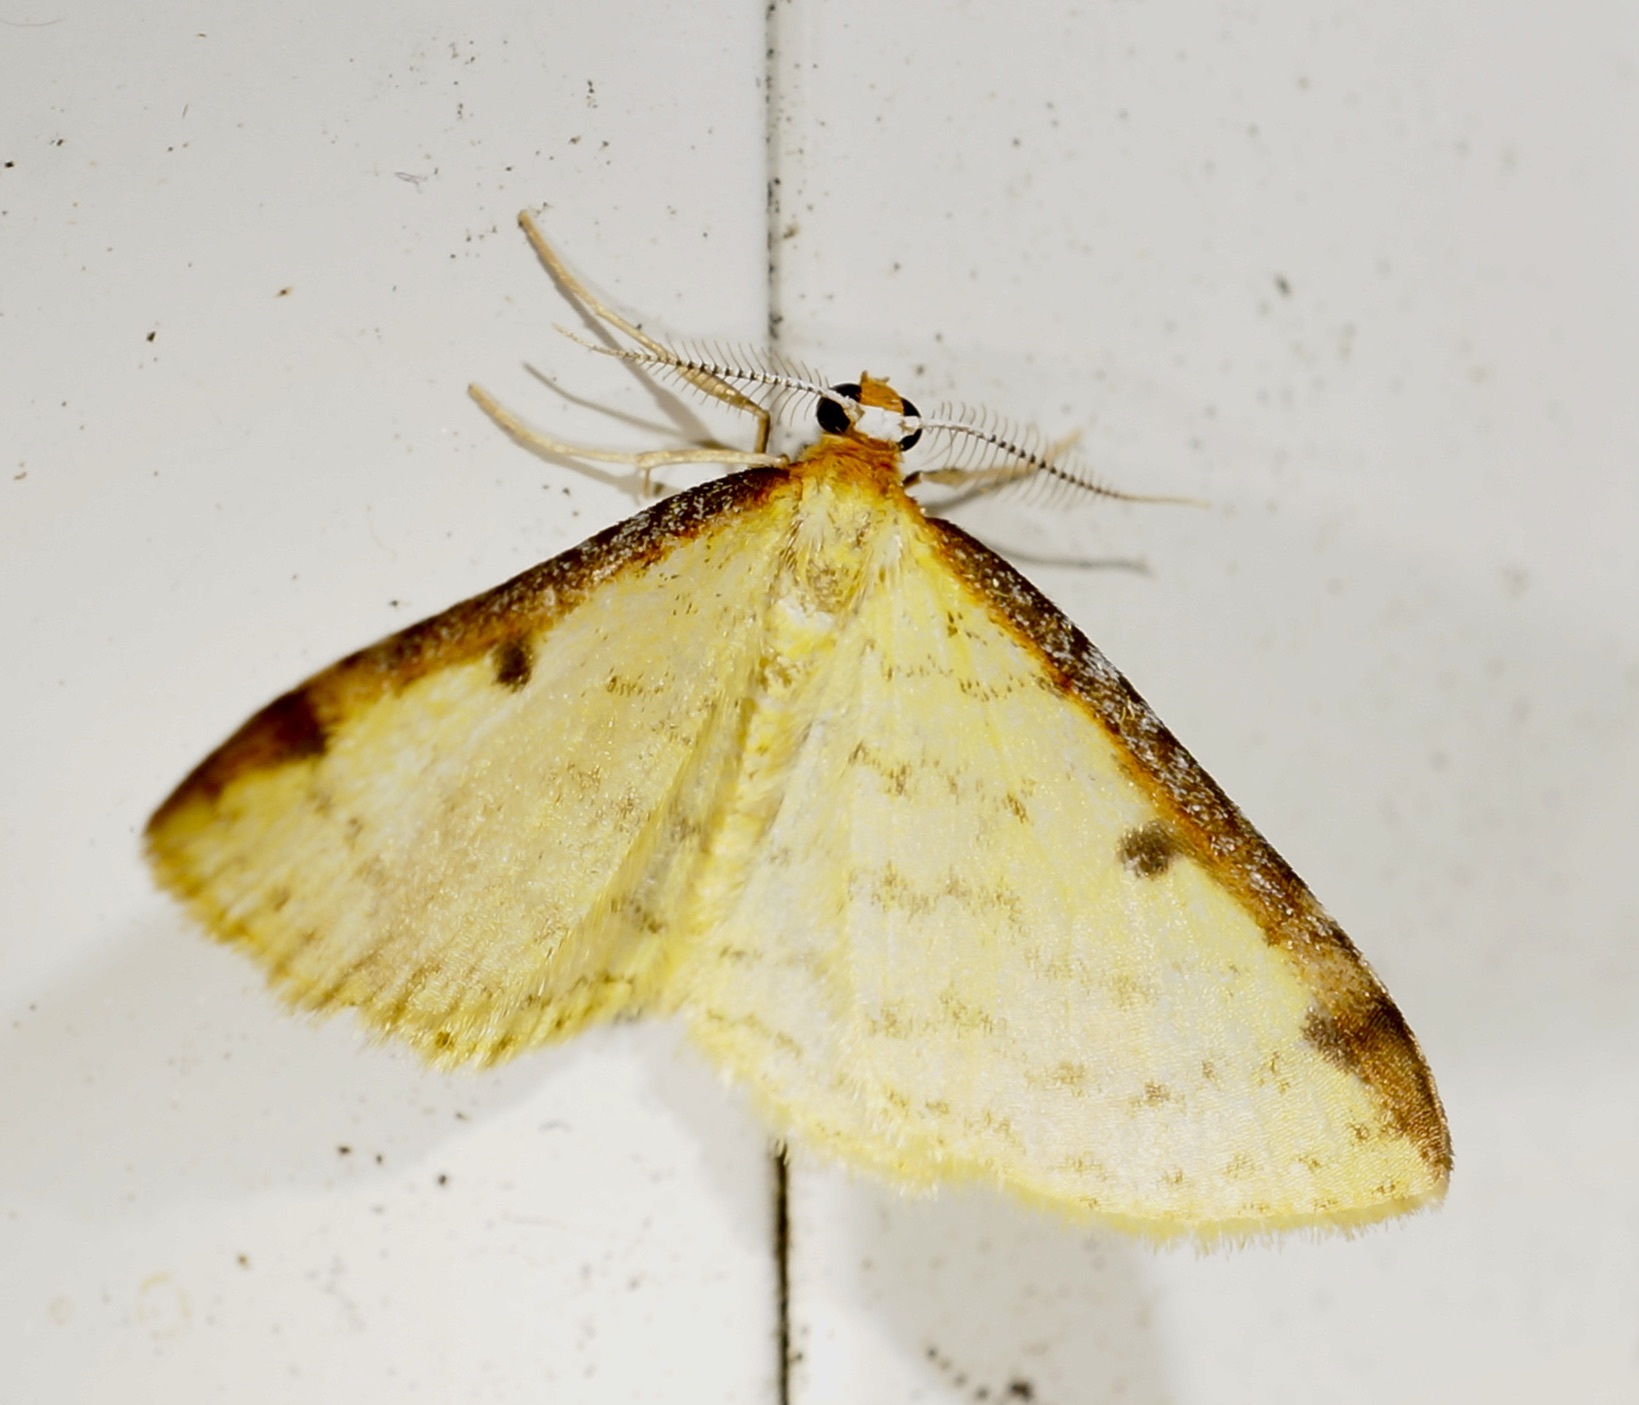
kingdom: Animalia
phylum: Arthropoda
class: Insecta
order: Lepidoptera
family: Geometridae
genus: Epiphryne
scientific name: Epiphryne undosata
